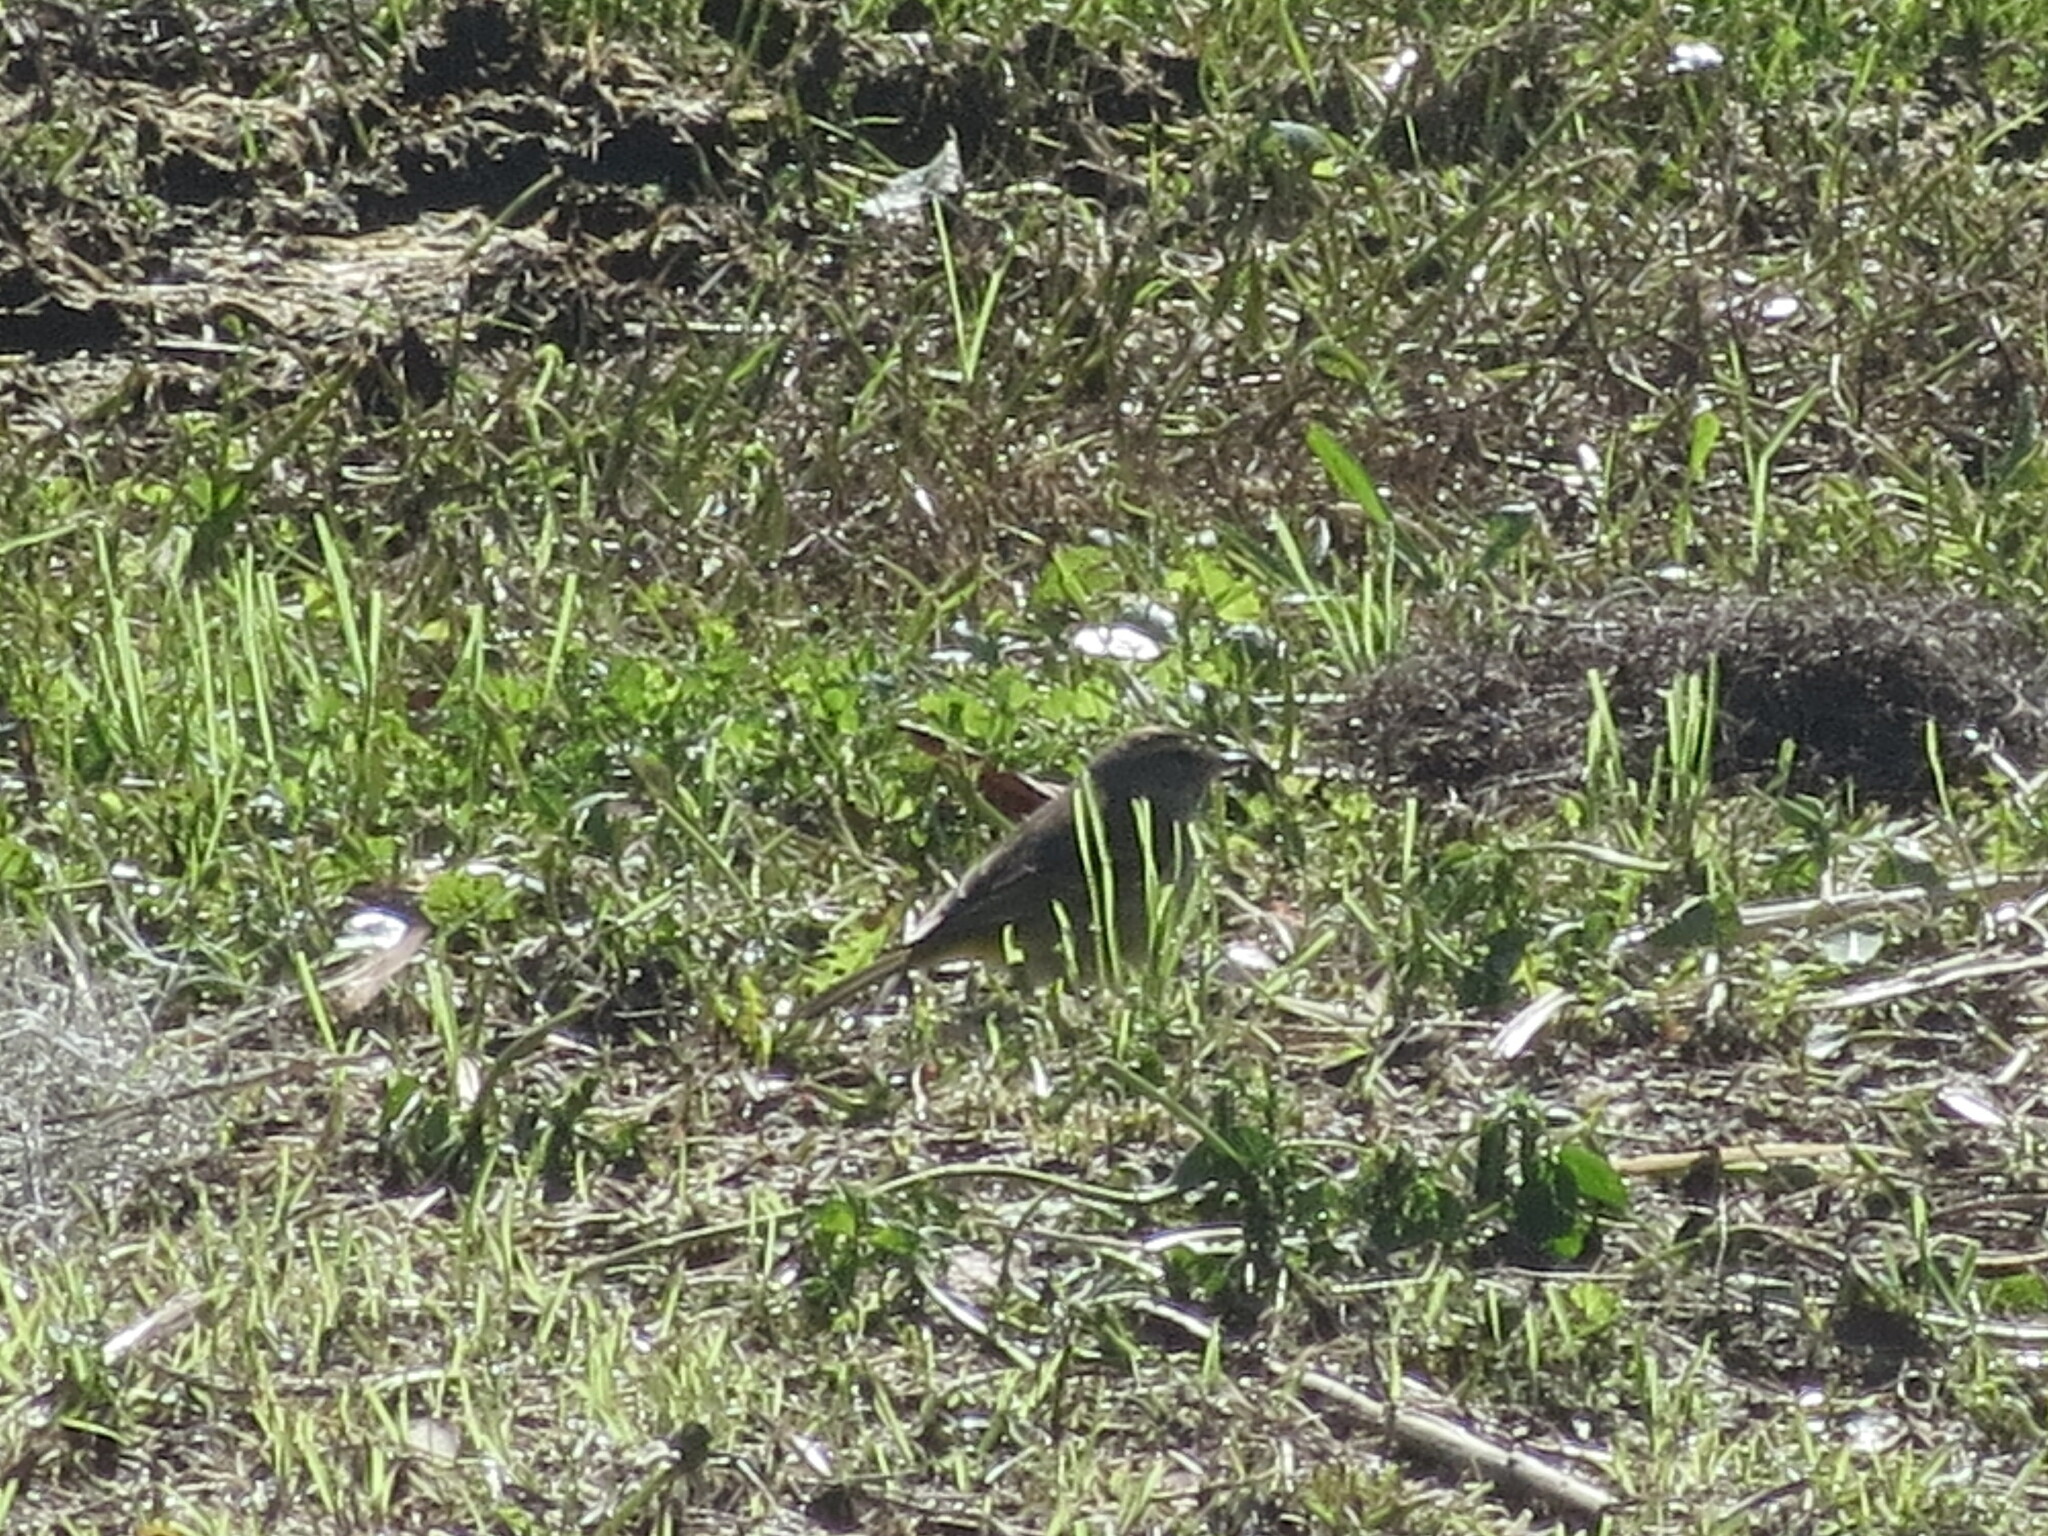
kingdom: Animalia
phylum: Chordata
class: Aves
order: Passeriformes
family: Parulidae
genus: Setophaga
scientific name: Setophaga palmarum
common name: Palm warbler
